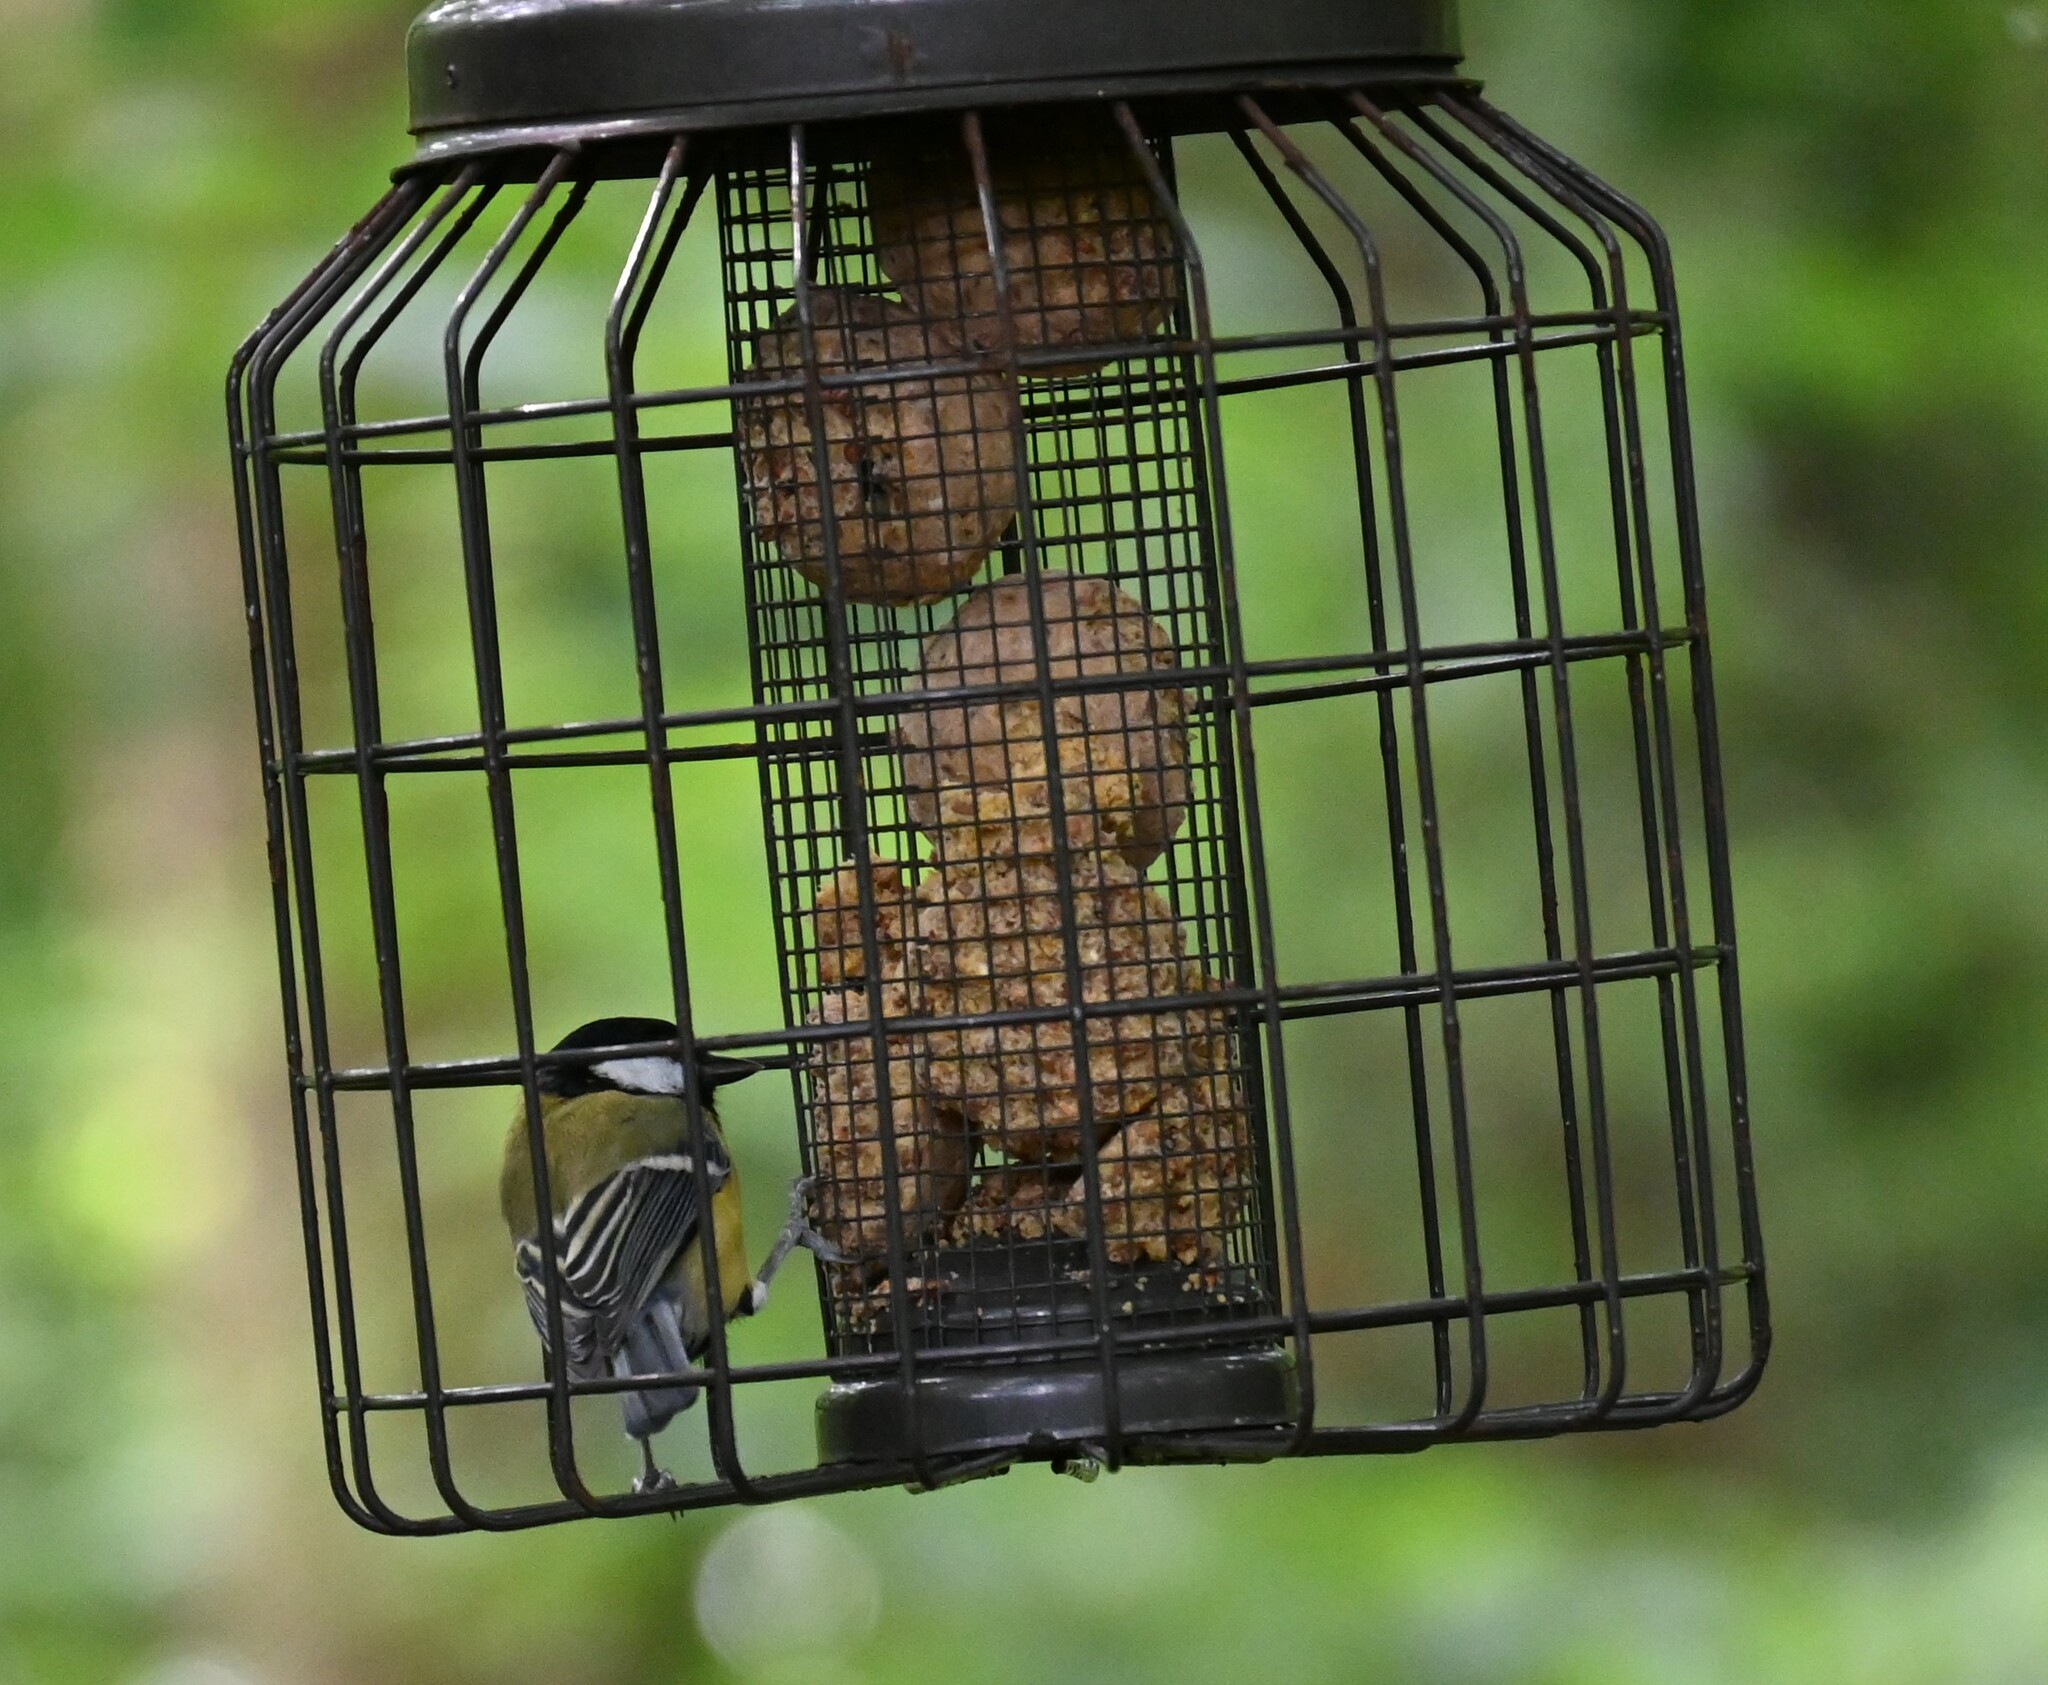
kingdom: Animalia
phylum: Chordata
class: Aves
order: Passeriformes
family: Paridae
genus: Parus
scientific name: Parus major
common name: Great tit
